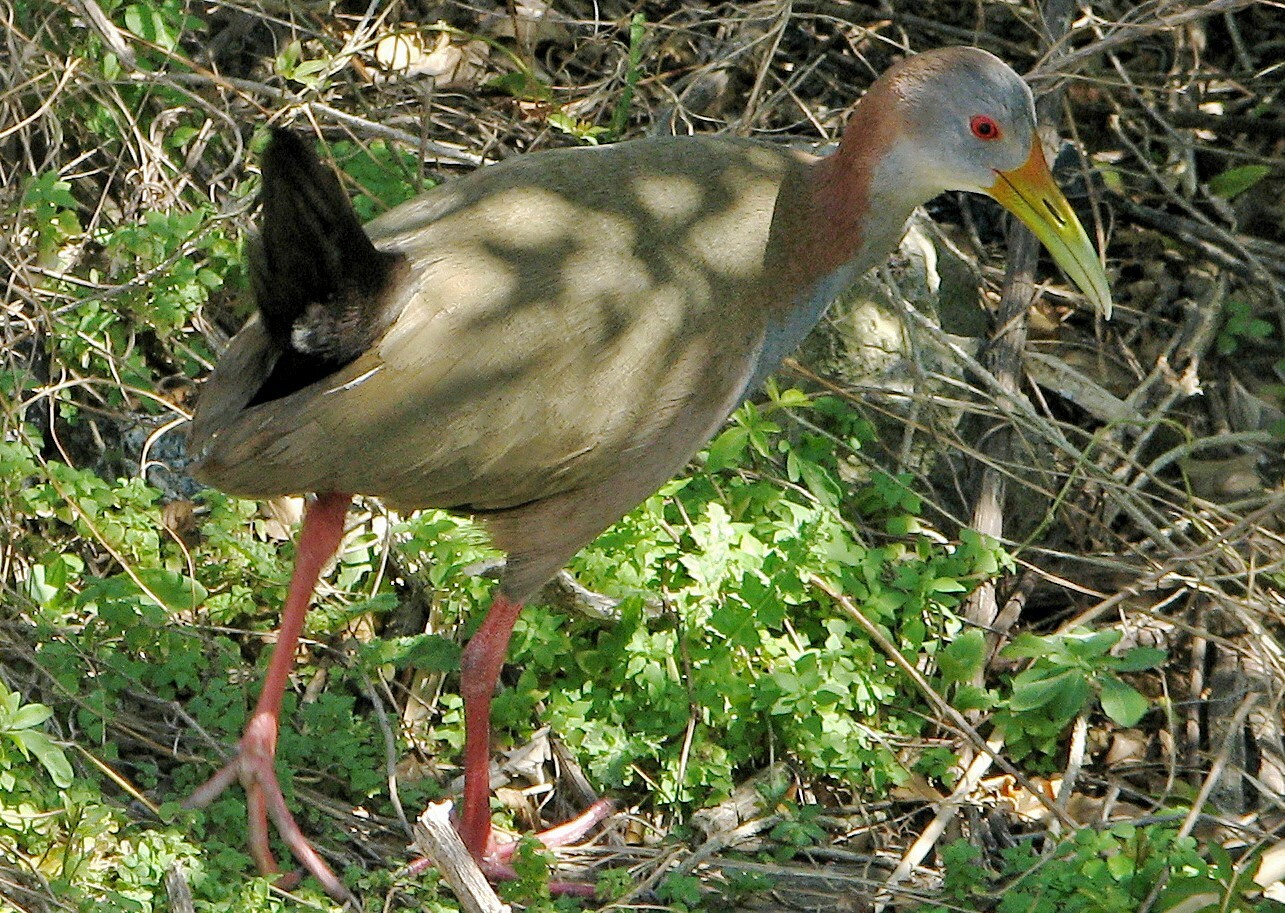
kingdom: Animalia
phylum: Chordata
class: Aves
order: Gruiformes
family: Rallidae
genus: Aramides
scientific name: Aramides ypecaha
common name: Giant wood rail
